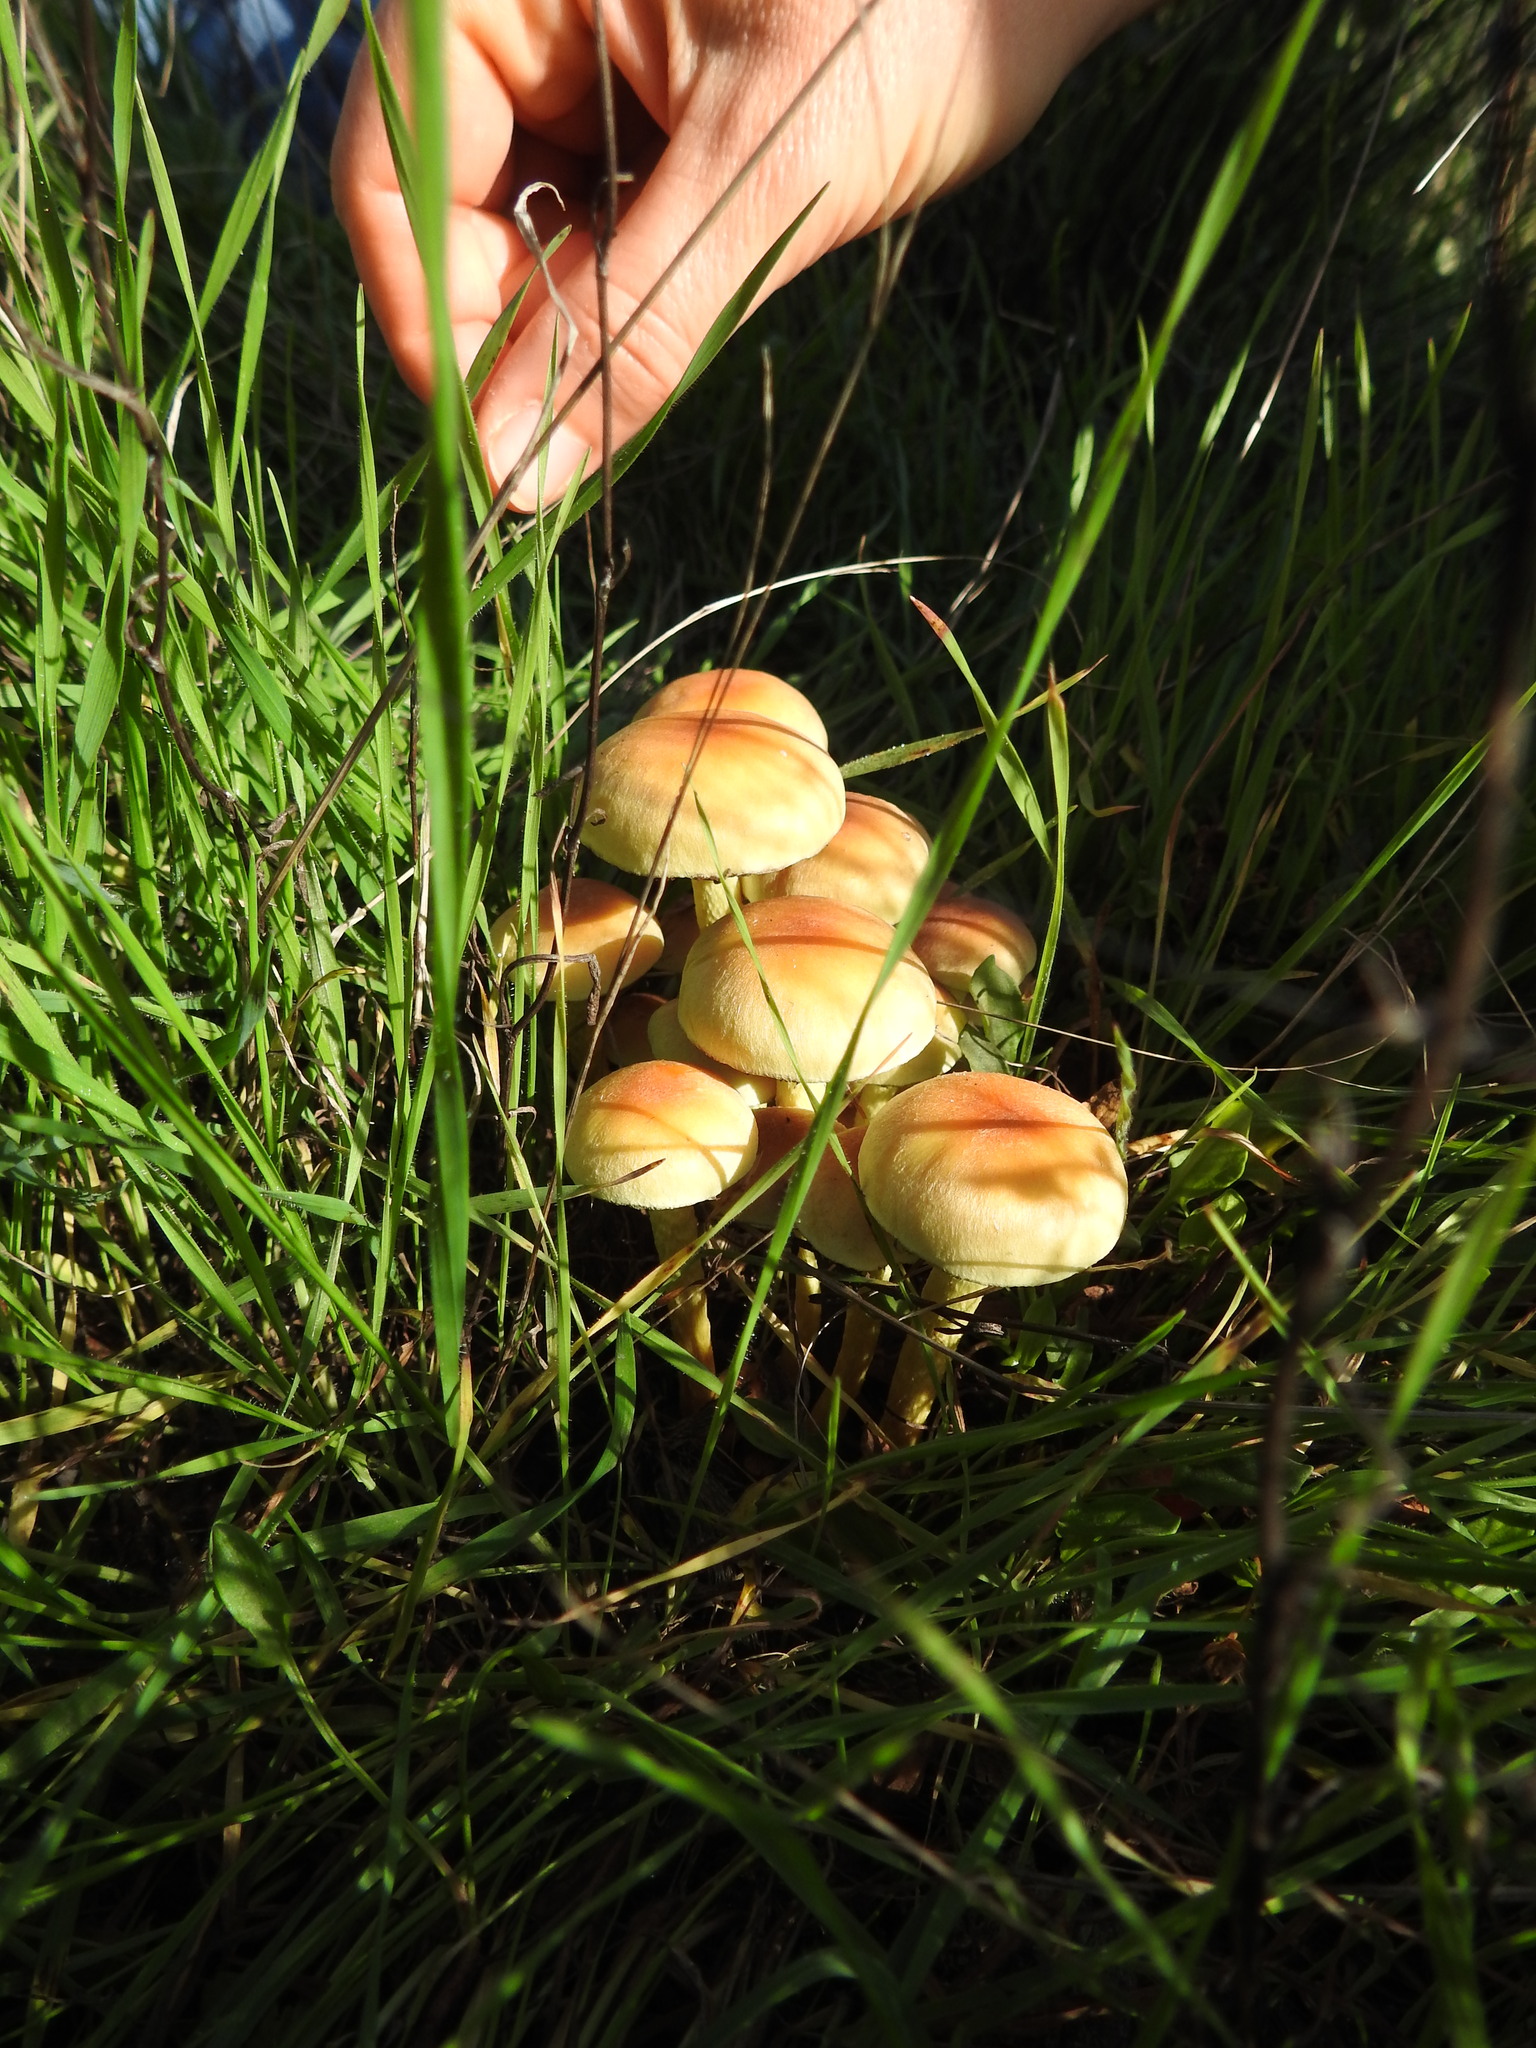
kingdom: Fungi
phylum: Basidiomycota
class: Agaricomycetes
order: Agaricales
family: Strophariaceae
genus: Hypholoma
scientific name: Hypholoma fasciculare
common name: Sulphur tuft
